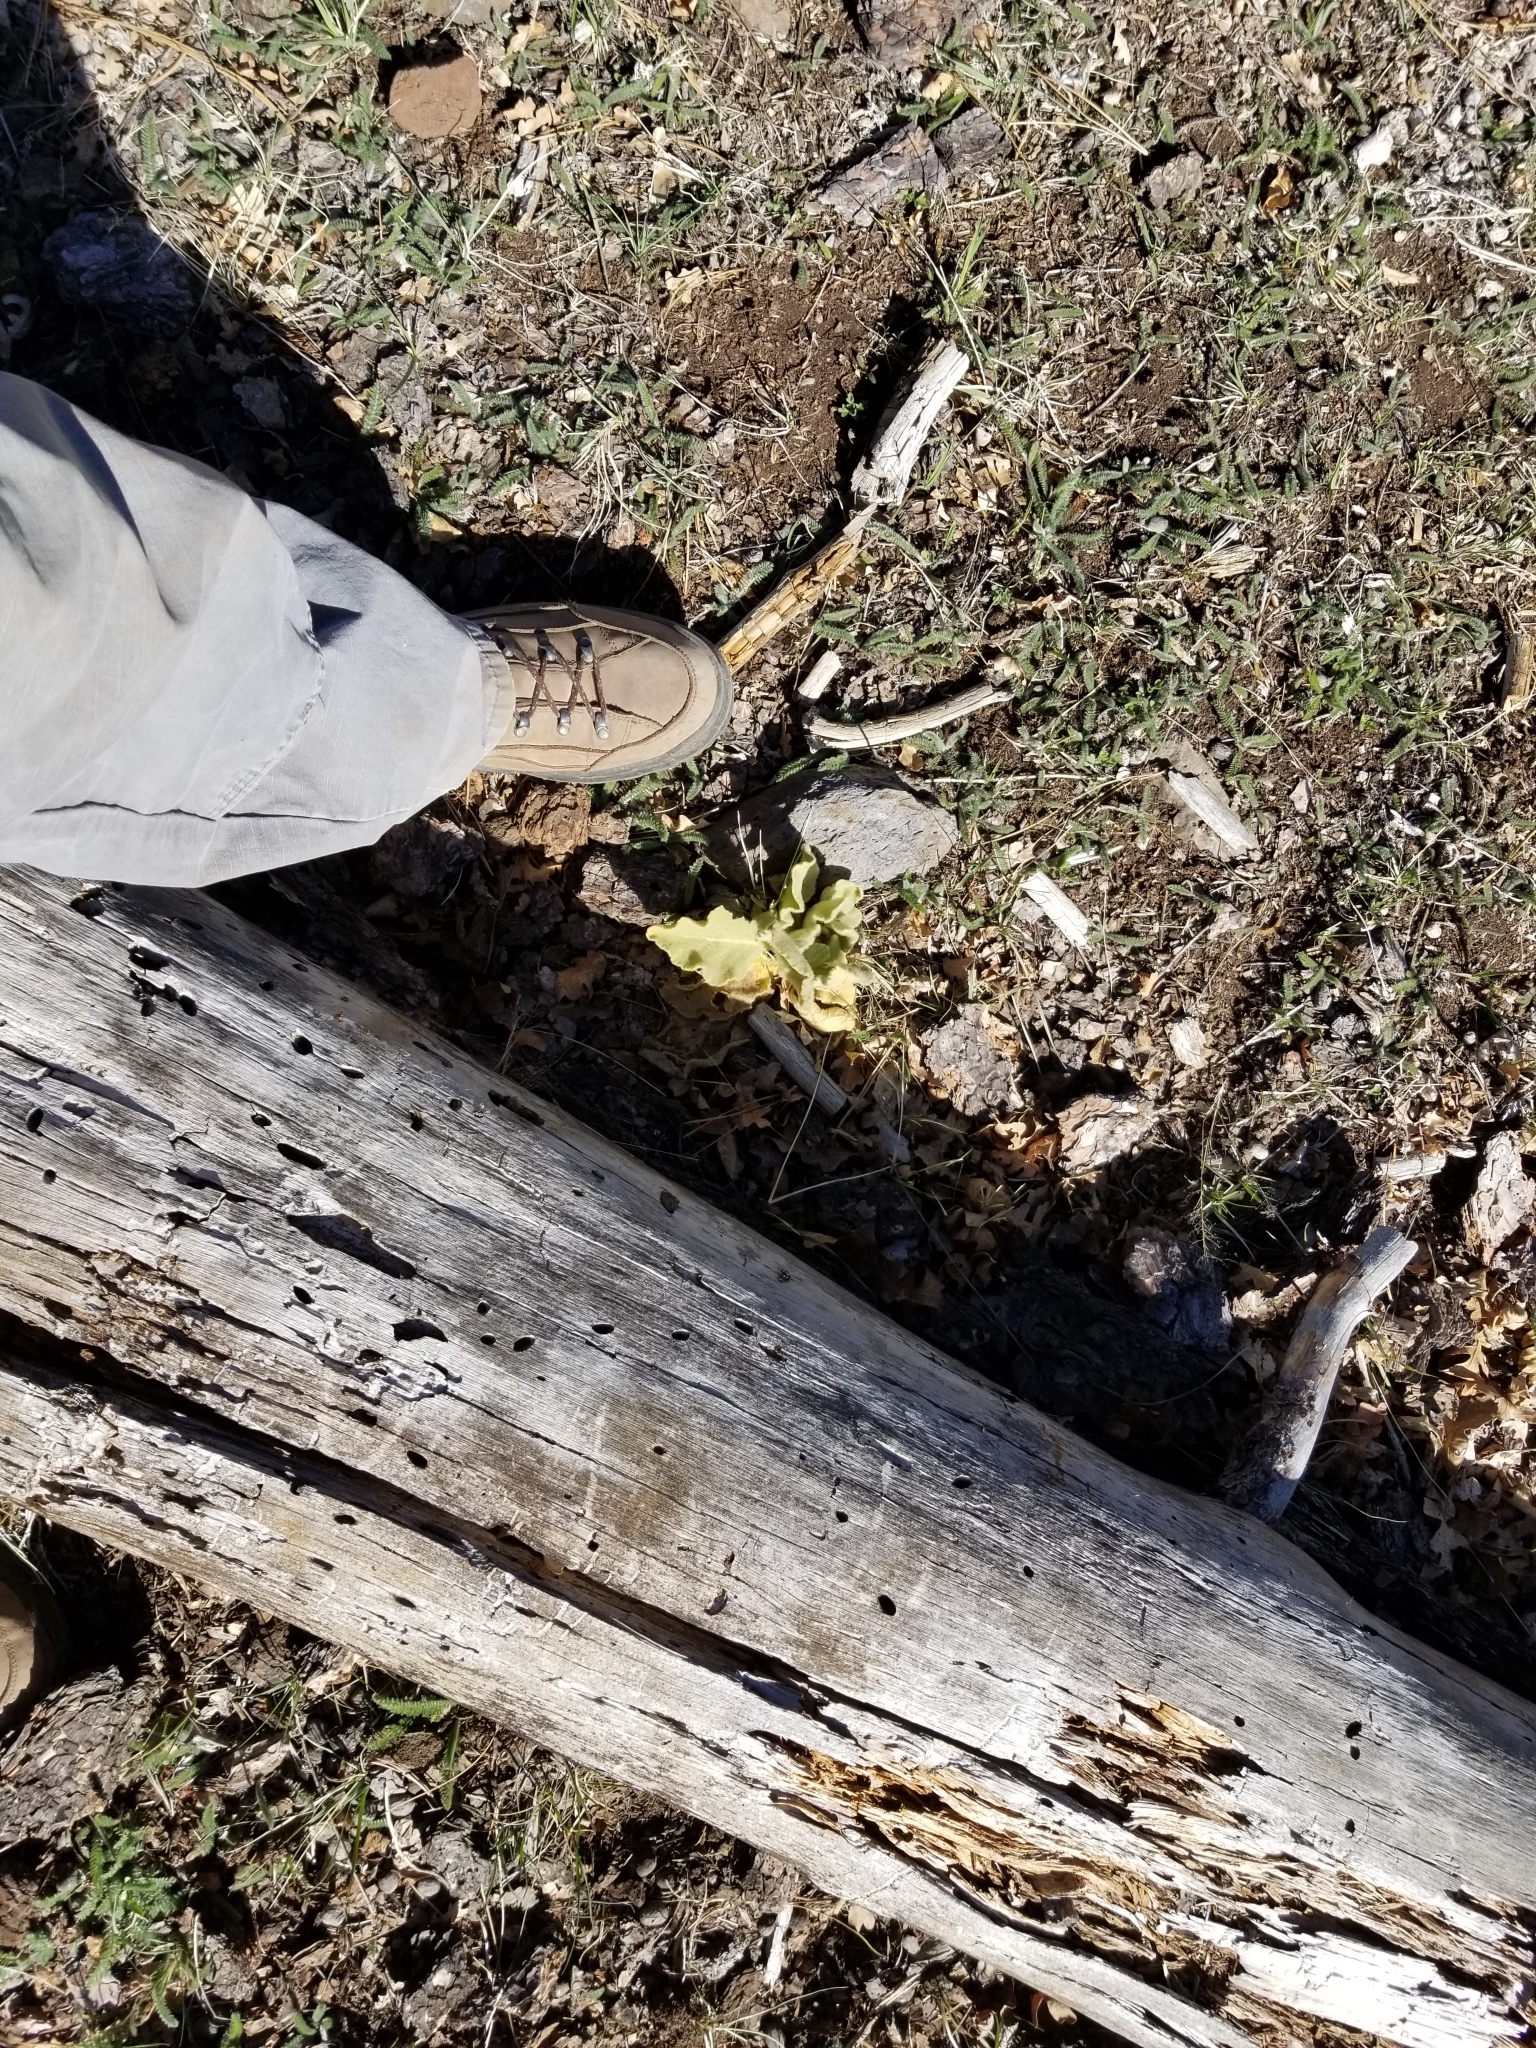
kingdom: Plantae
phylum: Tracheophyta
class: Magnoliopsida
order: Lamiales
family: Scrophulariaceae
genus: Verbascum
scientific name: Verbascum thapsus
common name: Common mullein
